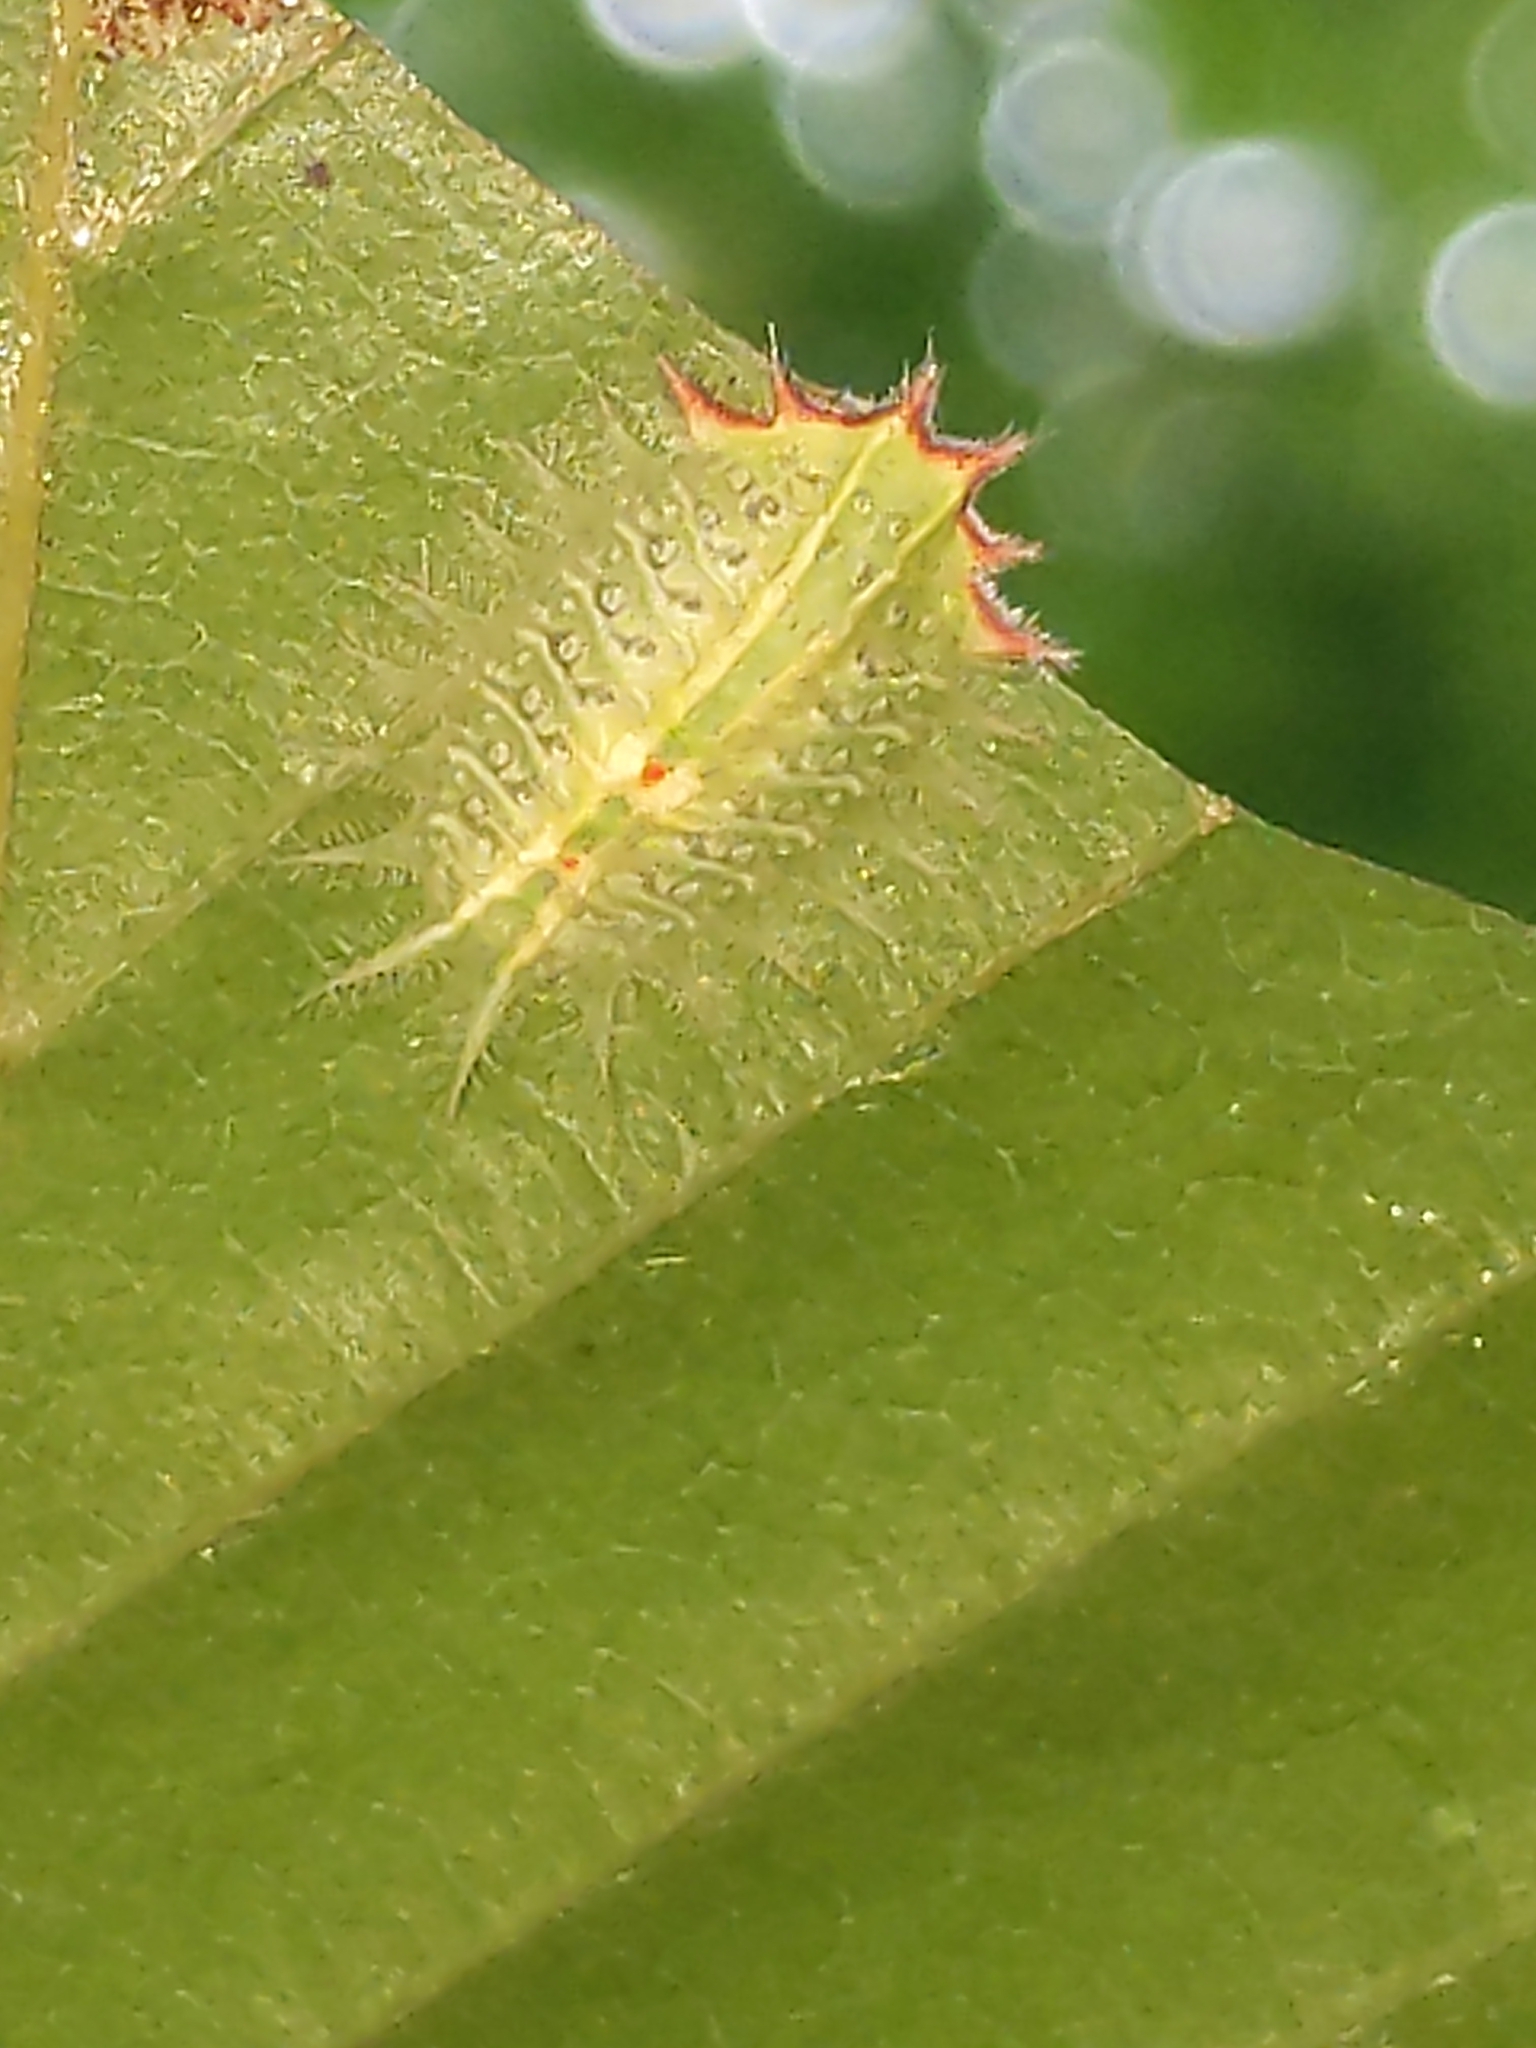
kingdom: Animalia
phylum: Arthropoda
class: Insecta
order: Lepidoptera
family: Limacodidae
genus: Isa
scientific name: Isa textula
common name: Crowned slug moth
